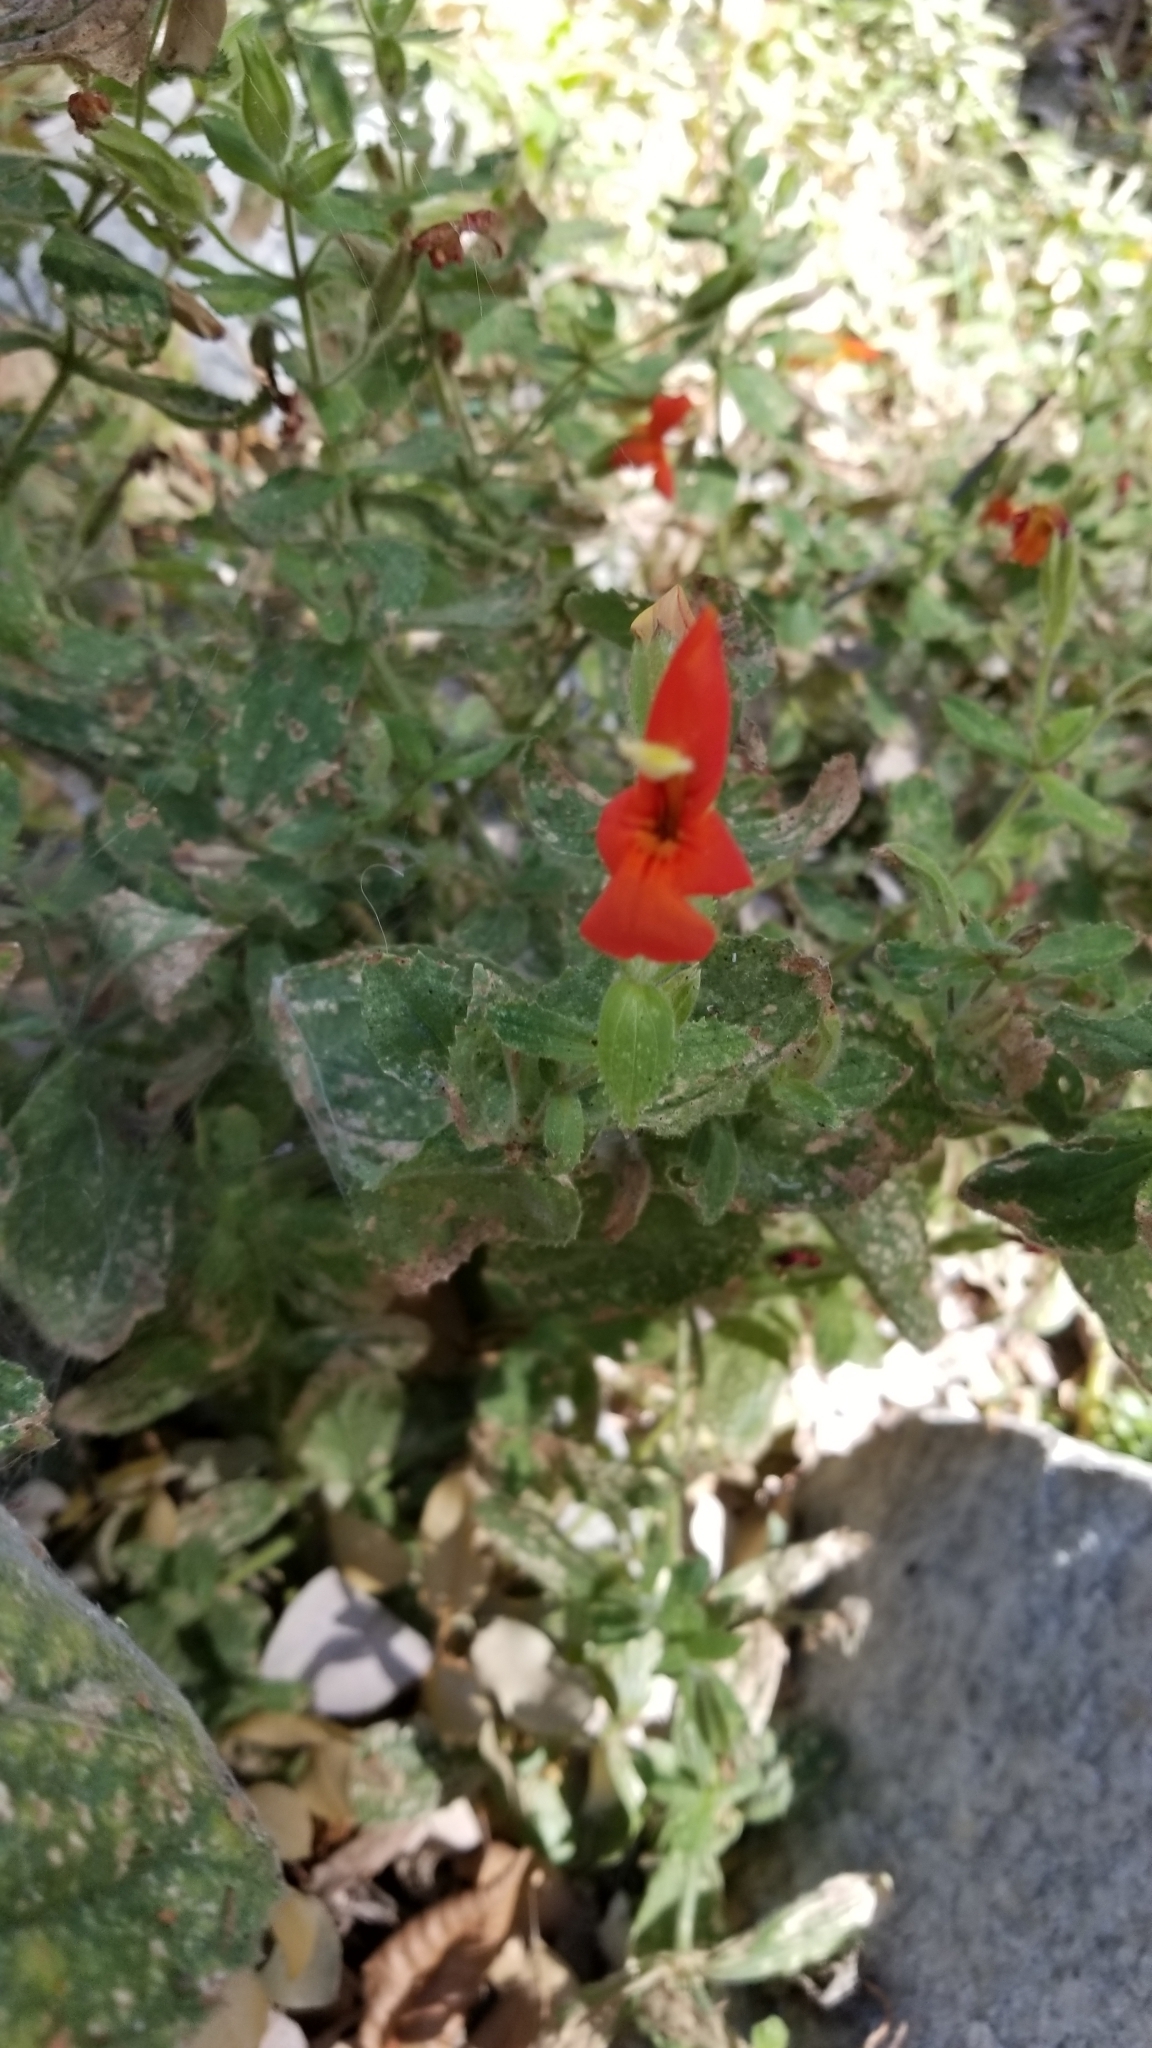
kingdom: Plantae
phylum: Tracheophyta
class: Magnoliopsida
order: Lamiales
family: Phrymaceae
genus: Erythranthe
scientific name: Erythranthe cardinalis
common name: Scarlet monkey-flower
